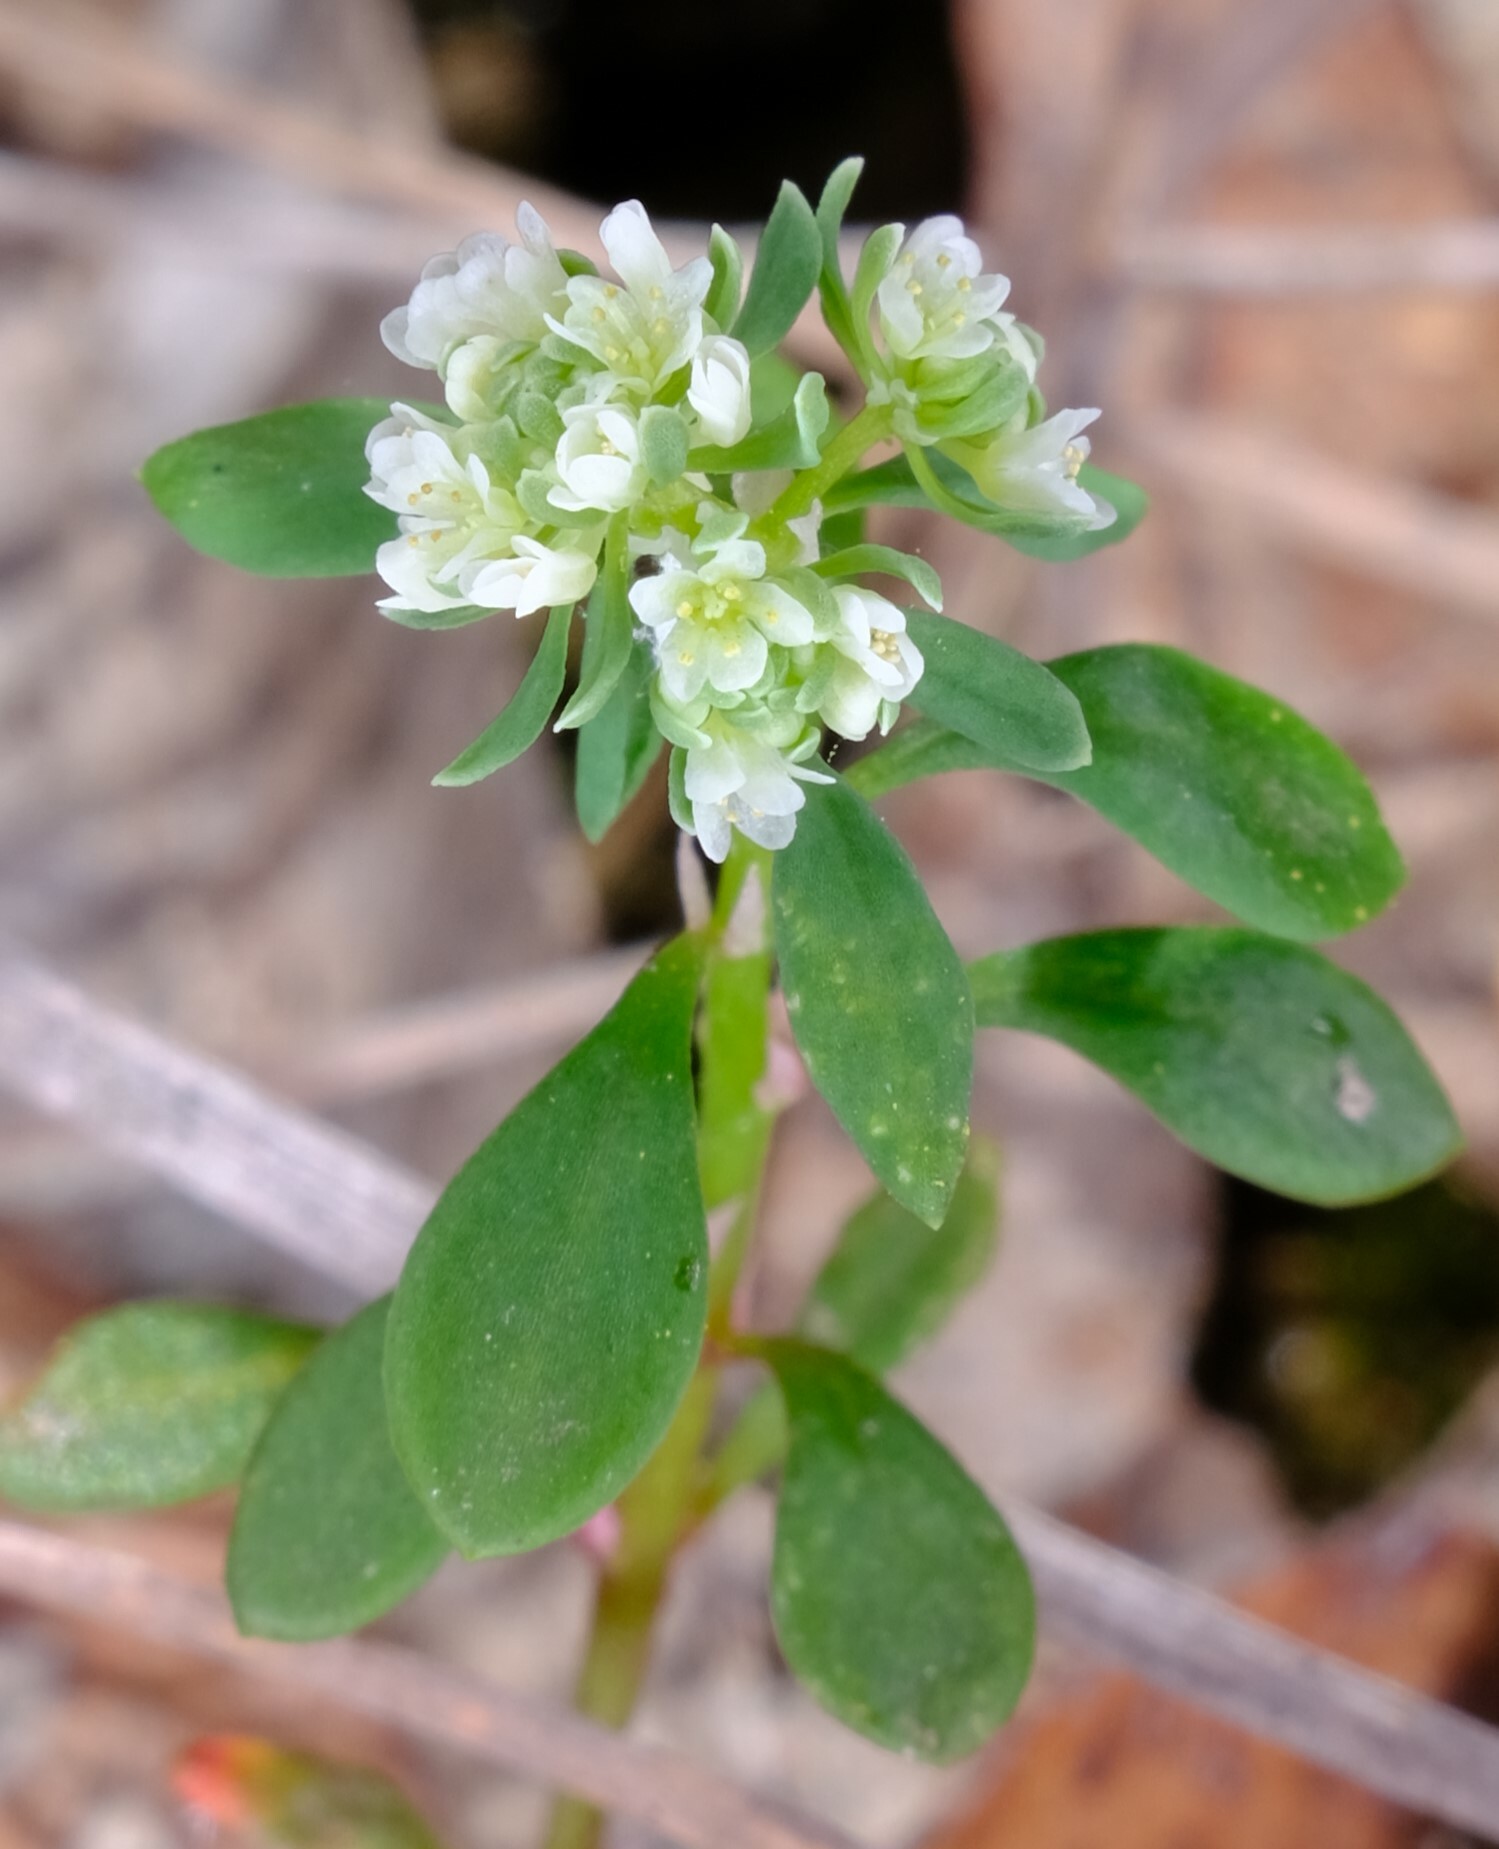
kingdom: Plantae
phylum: Tracheophyta
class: Magnoliopsida
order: Malpighiales
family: Phyllanthaceae
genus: Poranthera
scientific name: Poranthera microphylla
